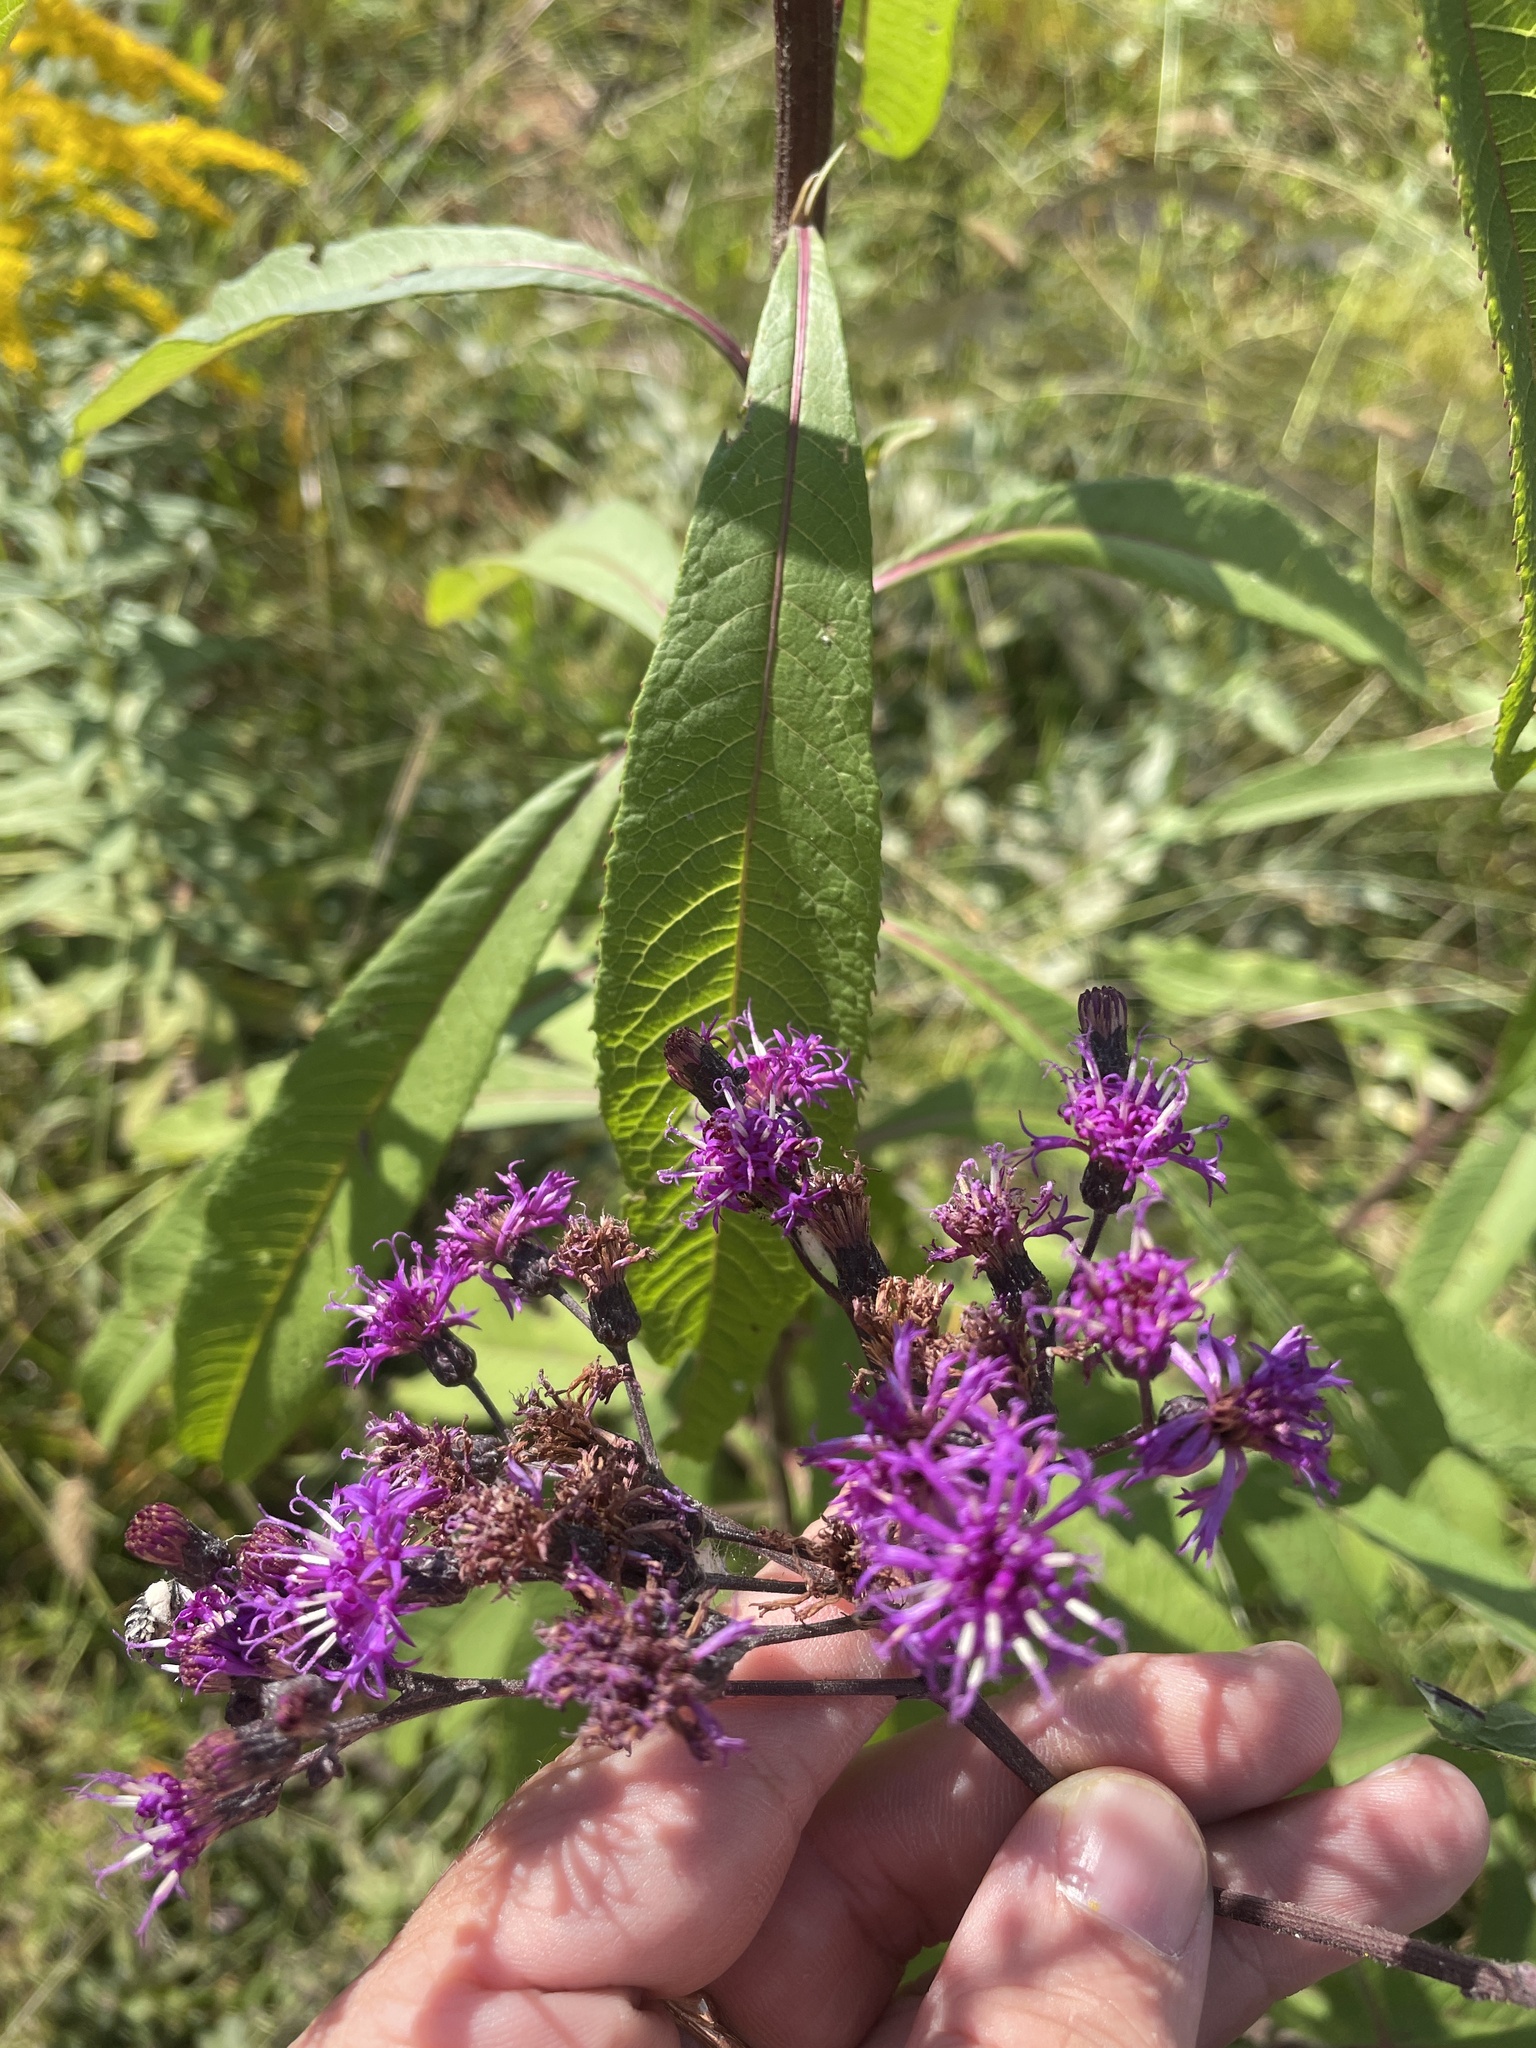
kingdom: Plantae
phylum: Tracheophyta
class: Magnoliopsida
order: Asterales
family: Asteraceae
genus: Vernonia
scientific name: Vernonia gigantea
